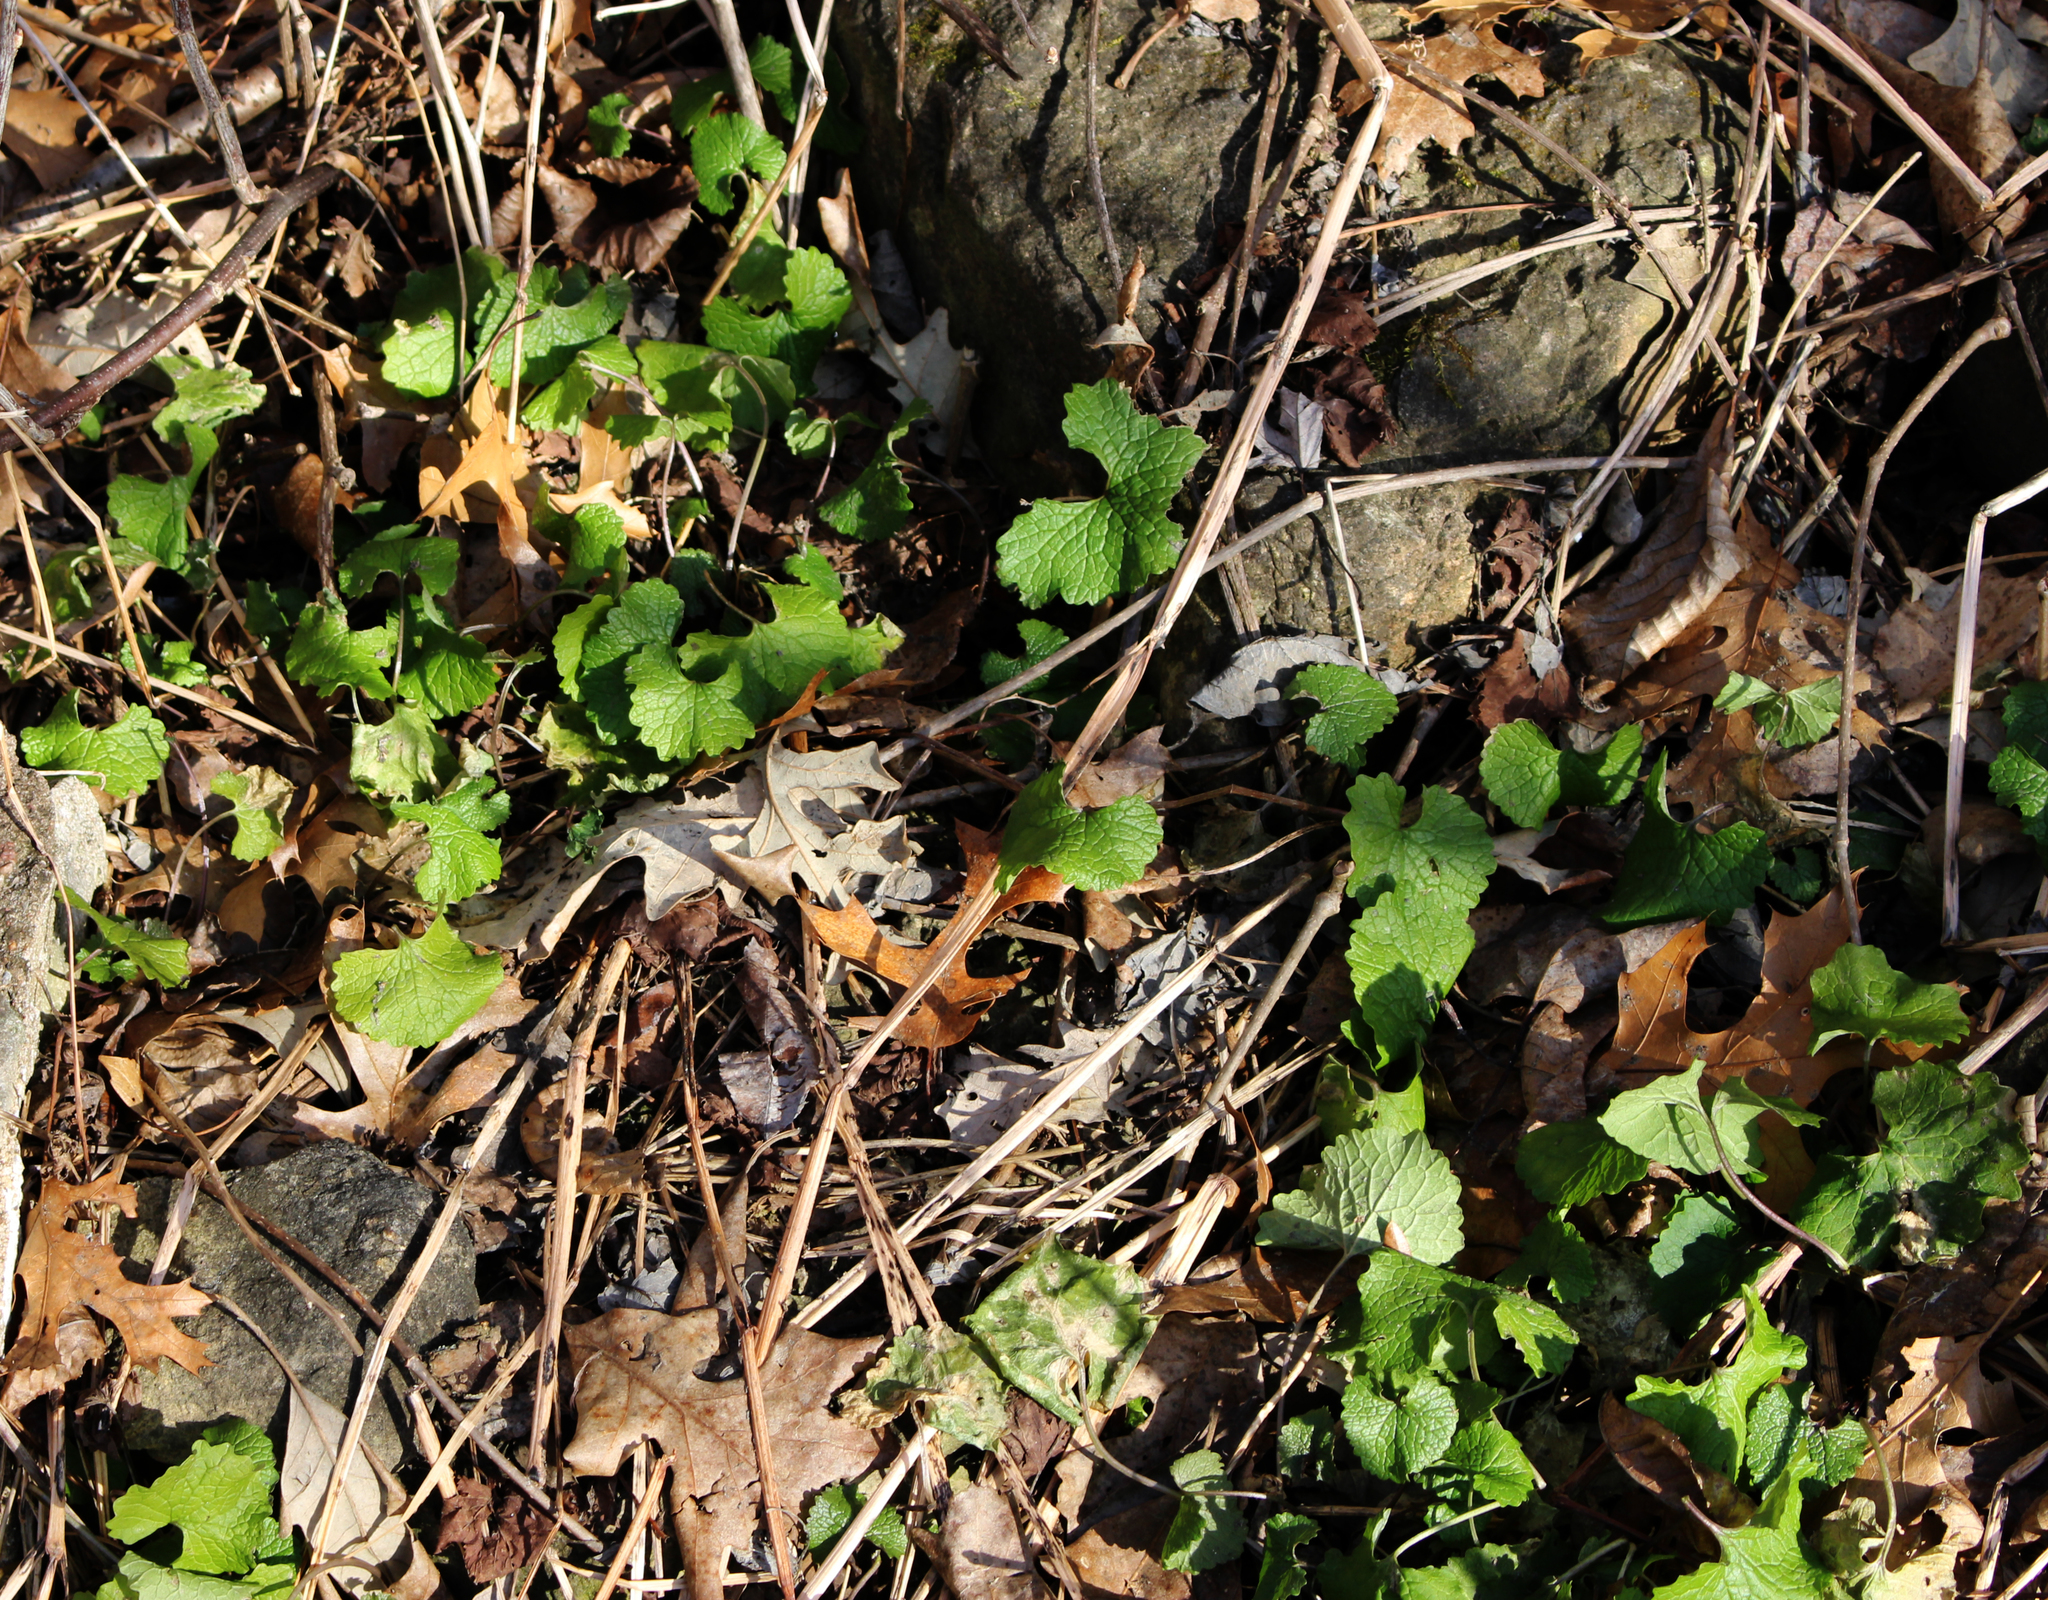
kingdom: Plantae
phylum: Tracheophyta
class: Magnoliopsida
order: Brassicales
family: Brassicaceae
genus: Alliaria
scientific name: Alliaria petiolata
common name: Garlic mustard
